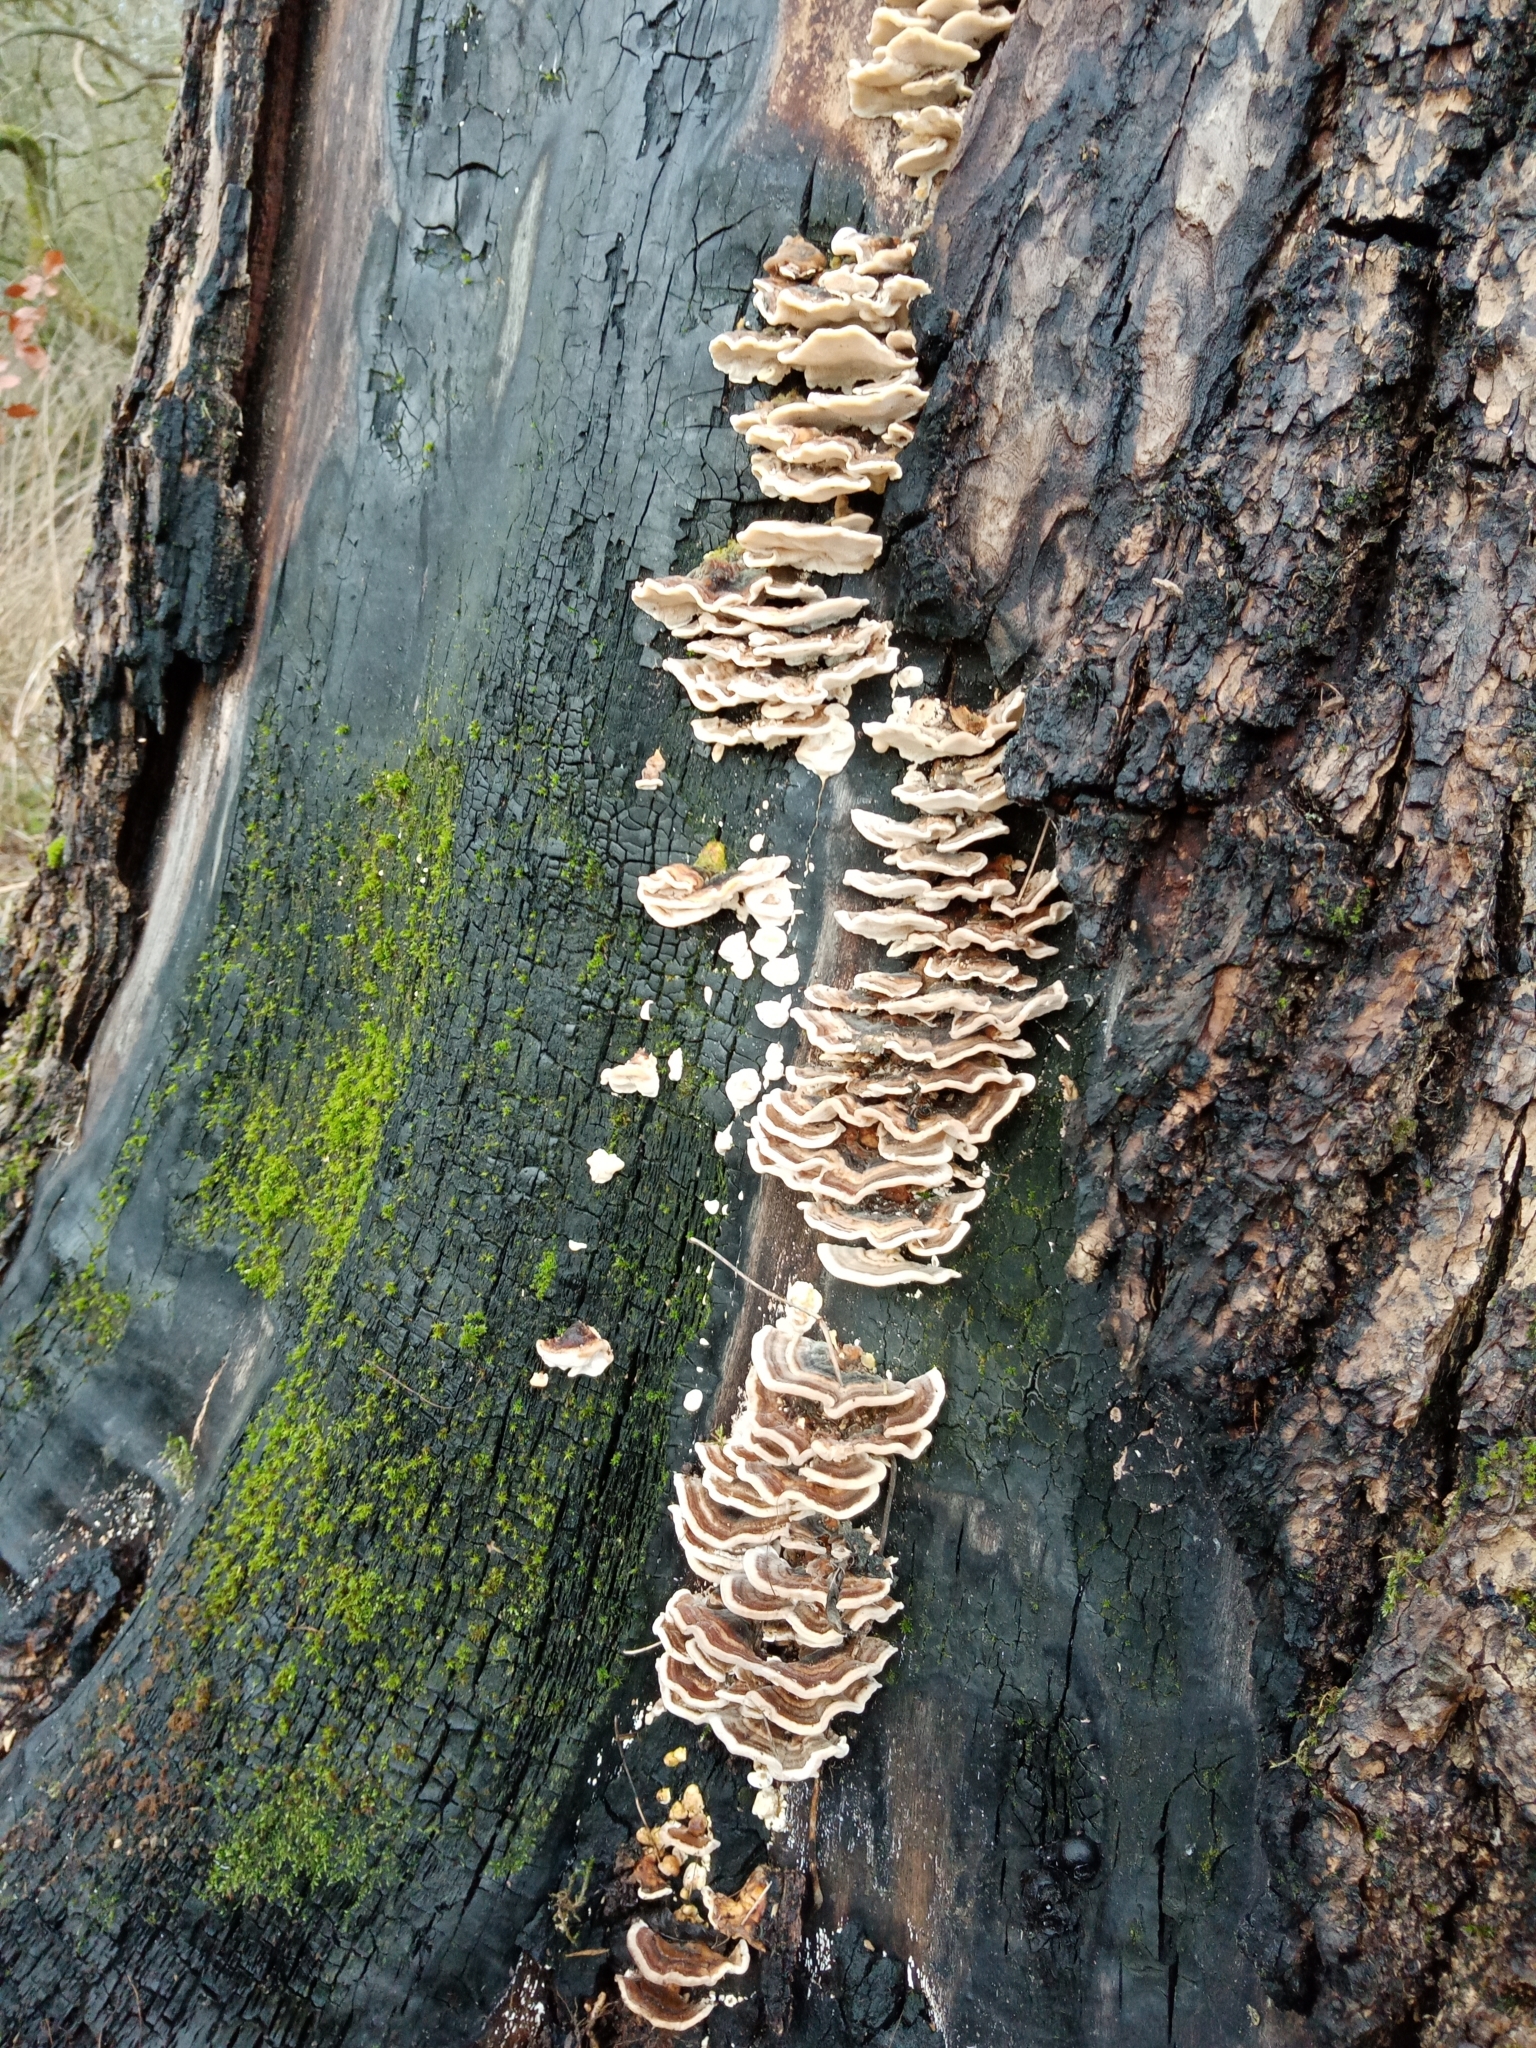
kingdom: Fungi
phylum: Basidiomycota
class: Agaricomycetes
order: Polyporales
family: Polyporaceae
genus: Trametes
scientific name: Trametes versicolor
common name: Turkeytail
